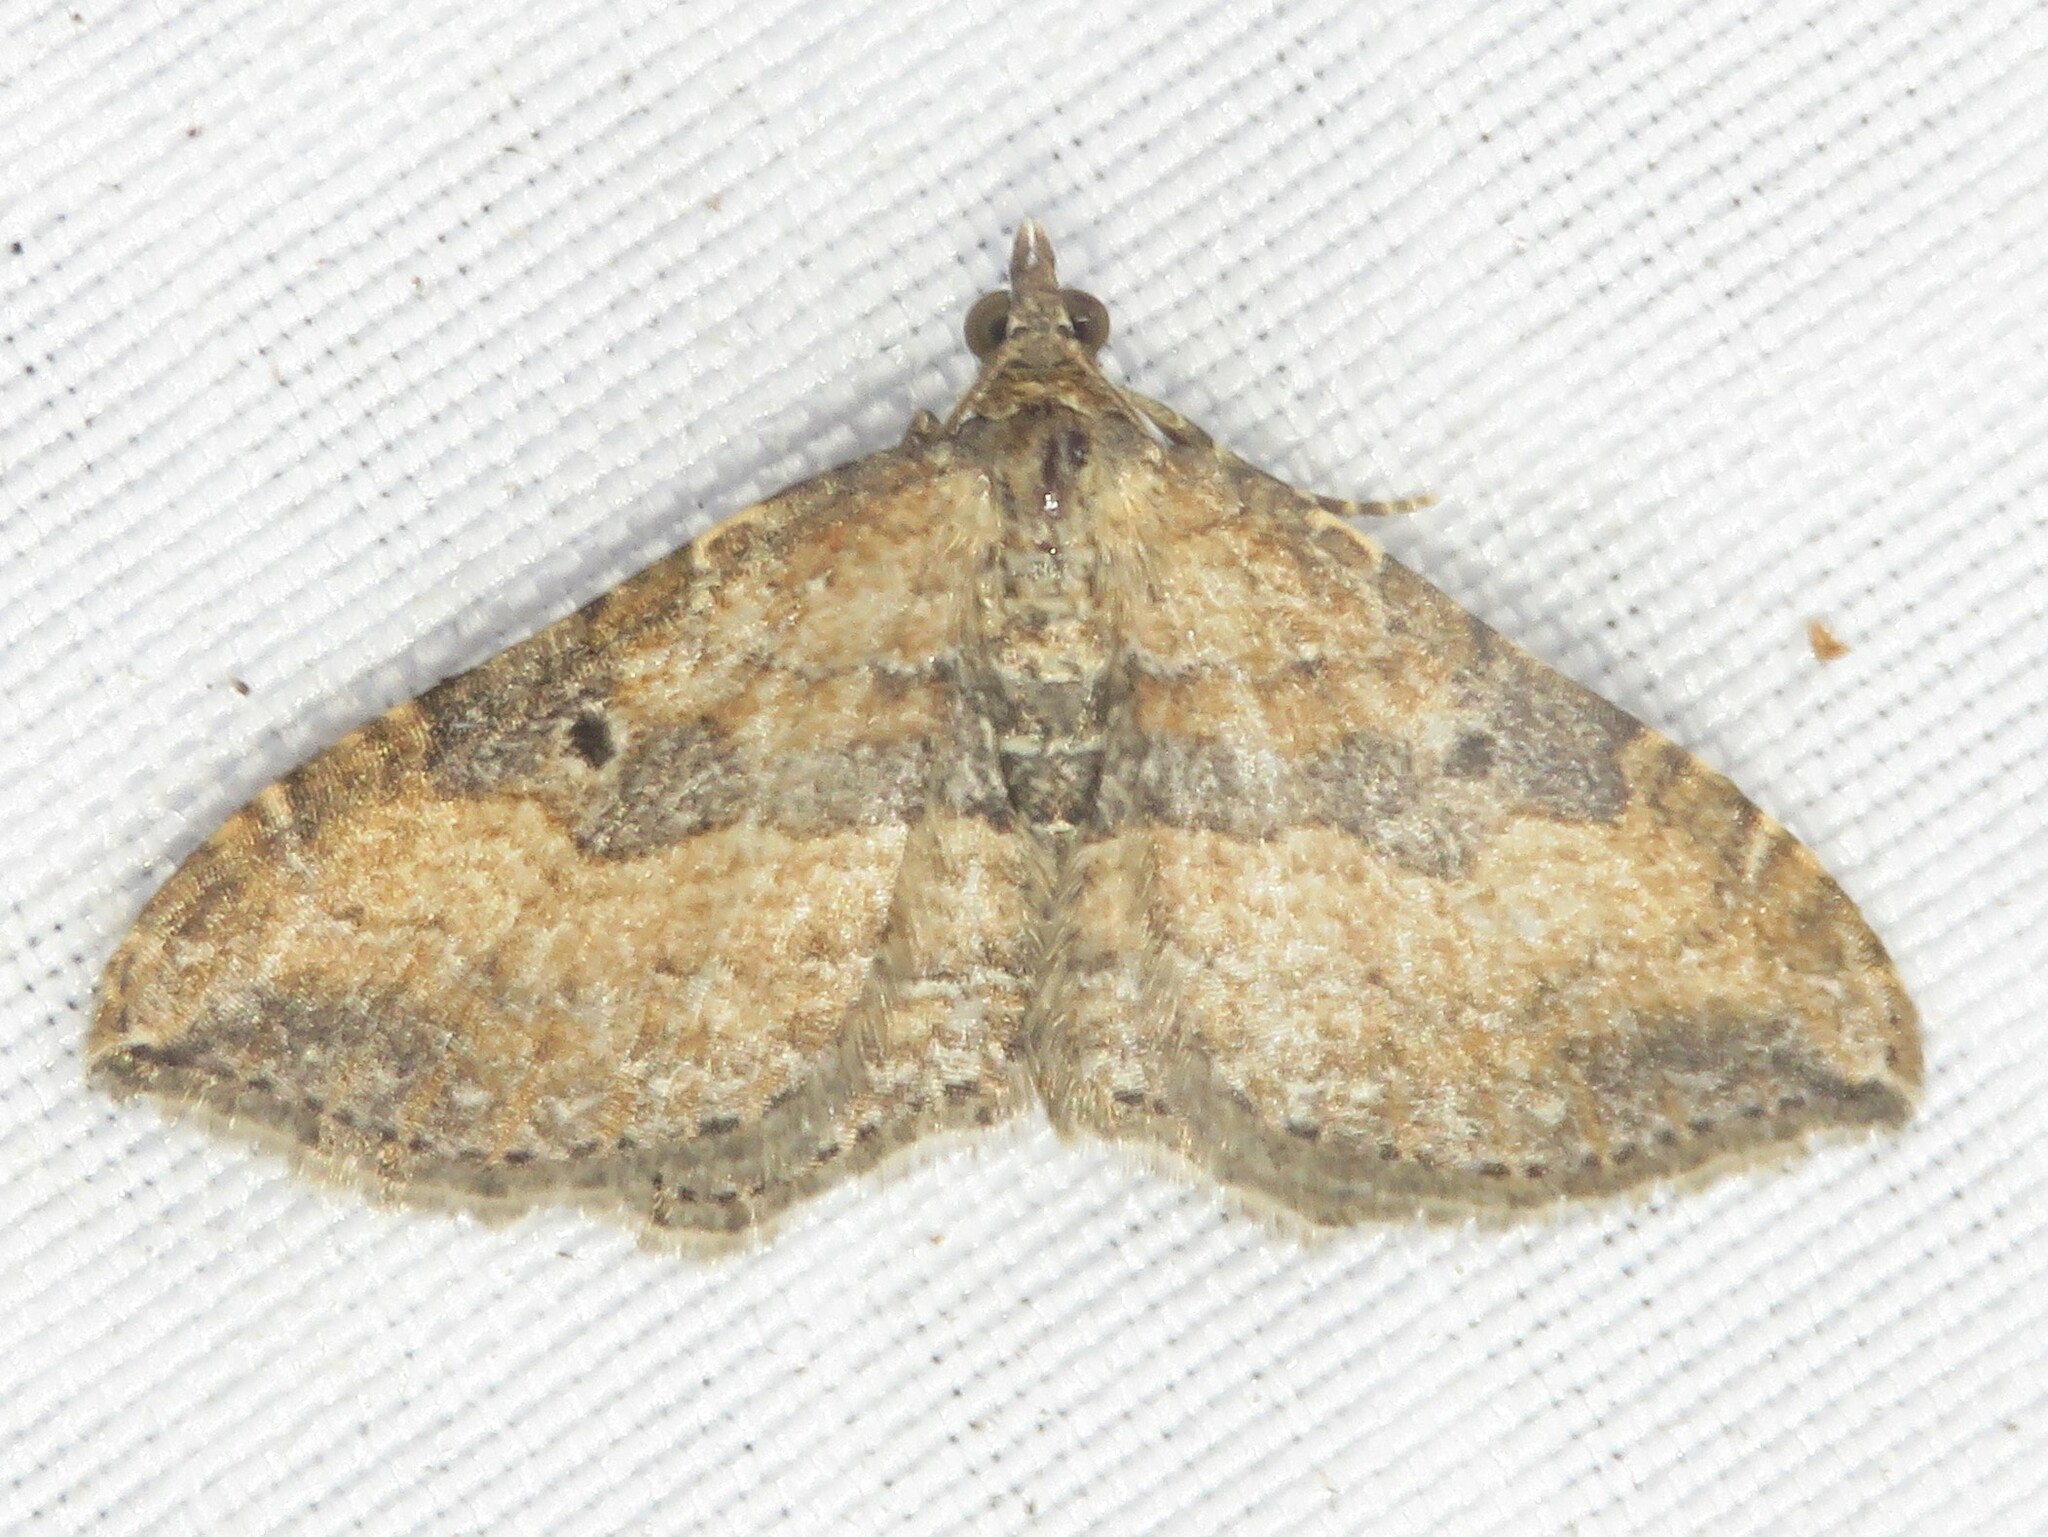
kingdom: Animalia
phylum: Arthropoda
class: Insecta
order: Lepidoptera
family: Geometridae
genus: Orthonama
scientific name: Orthonama obstipata
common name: The gem
